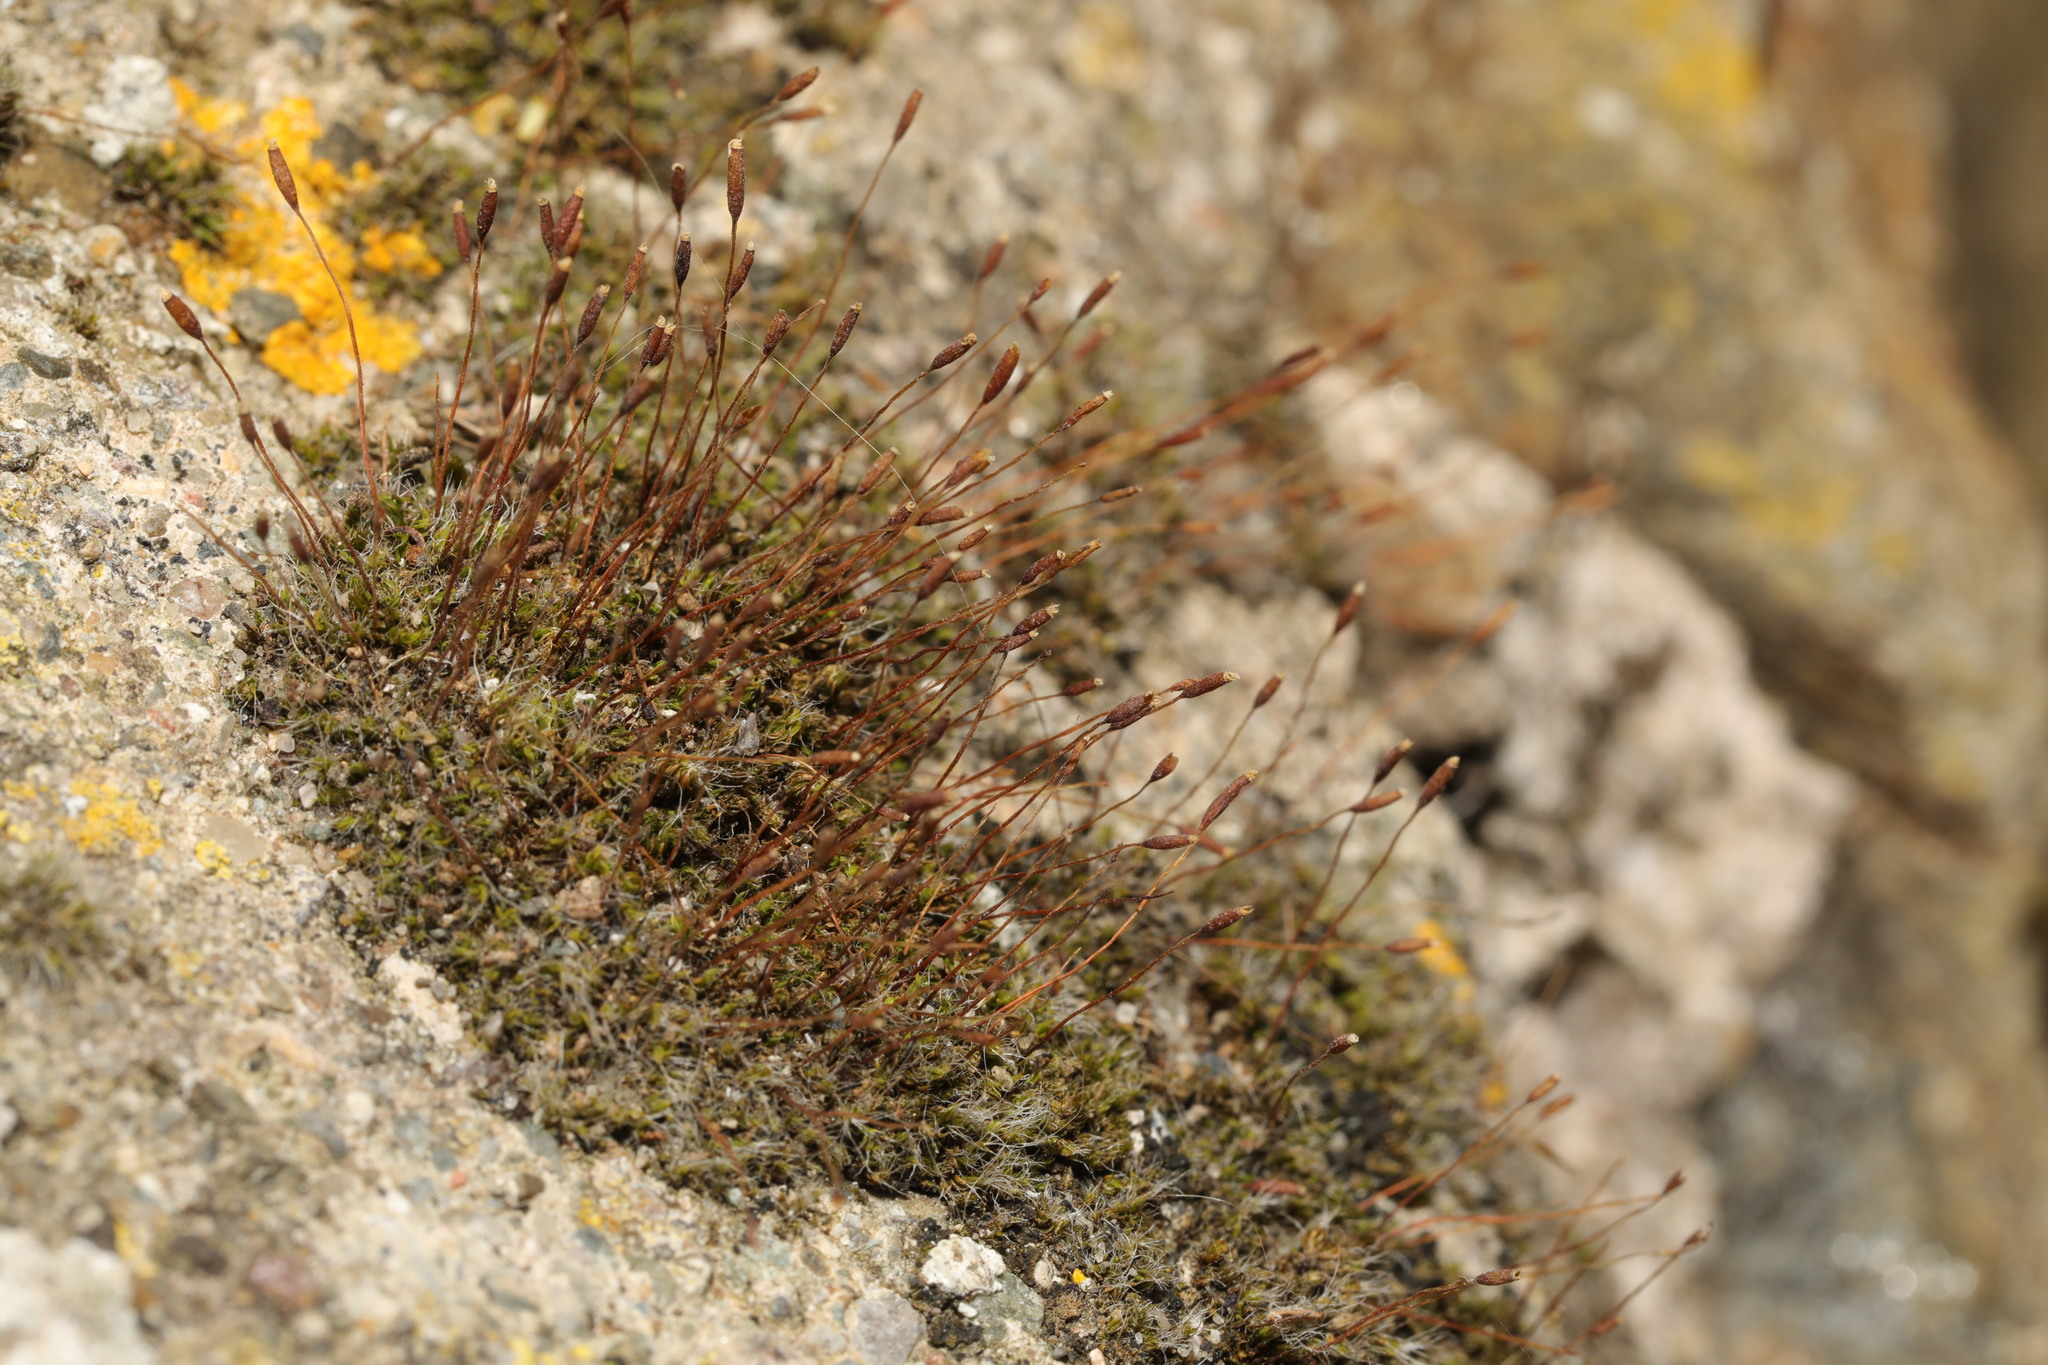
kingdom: Plantae
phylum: Bryophyta
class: Bryopsida
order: Pottiales
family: Pottiaceae
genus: Tortula
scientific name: Tortula muralis
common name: Wall screw-moss
